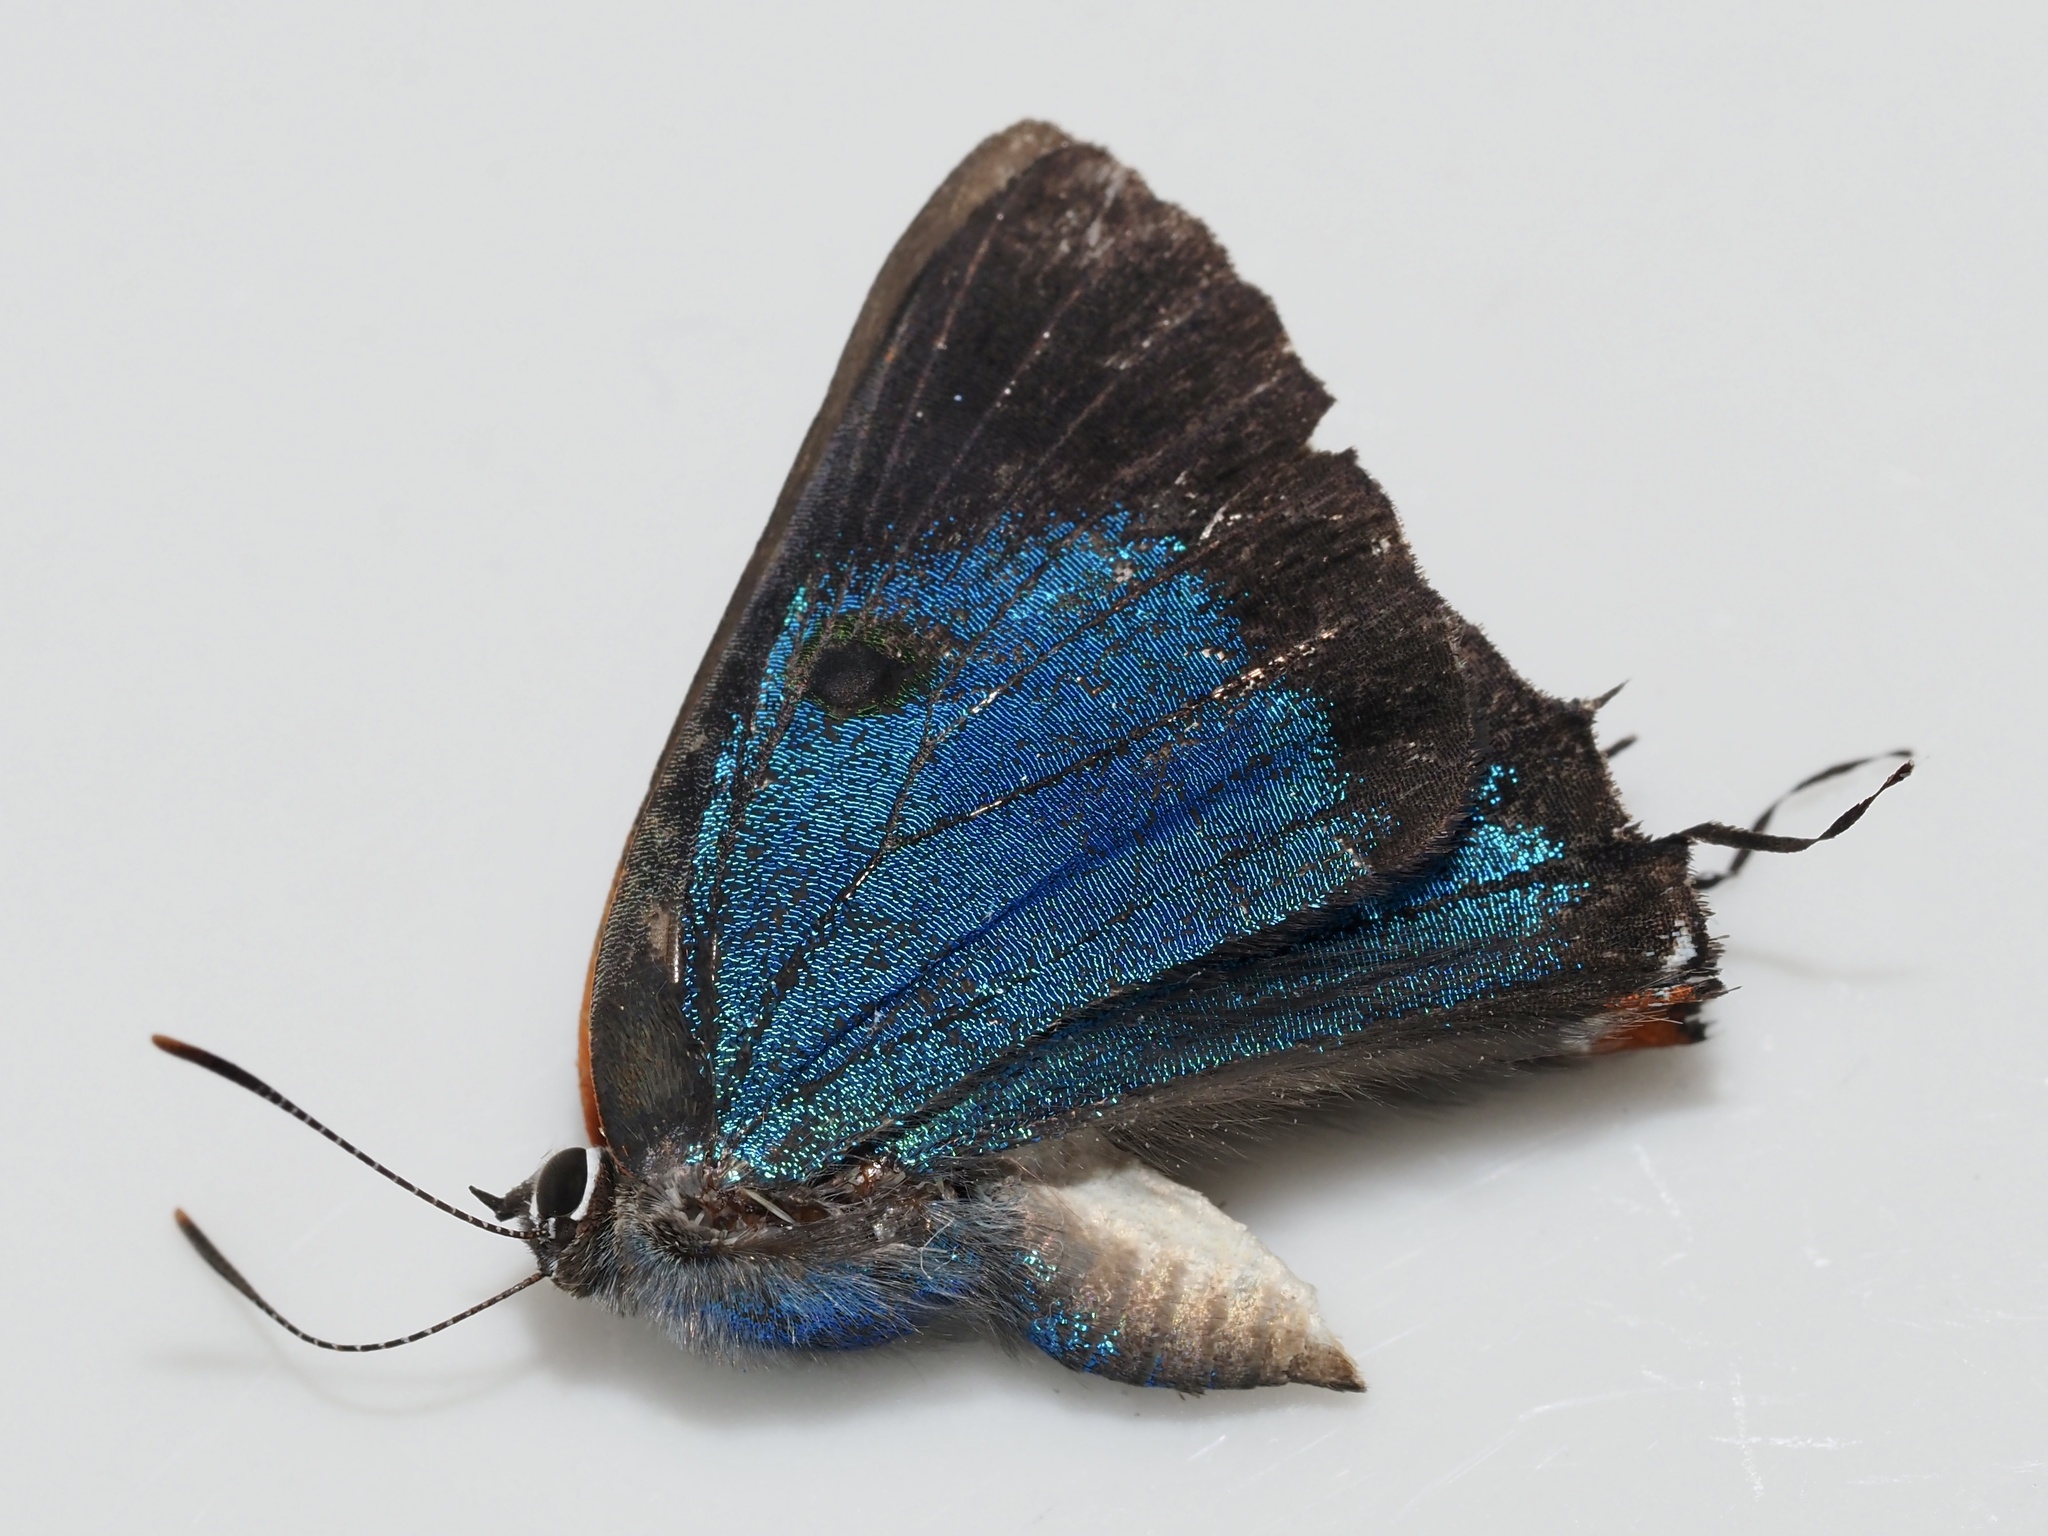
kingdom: Animalia
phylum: Arthropoda
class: Insecta
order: Lepidoptera
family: Lycaenidae
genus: Parrhasius
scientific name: Parrhasius m-album
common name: White m hairstreak
